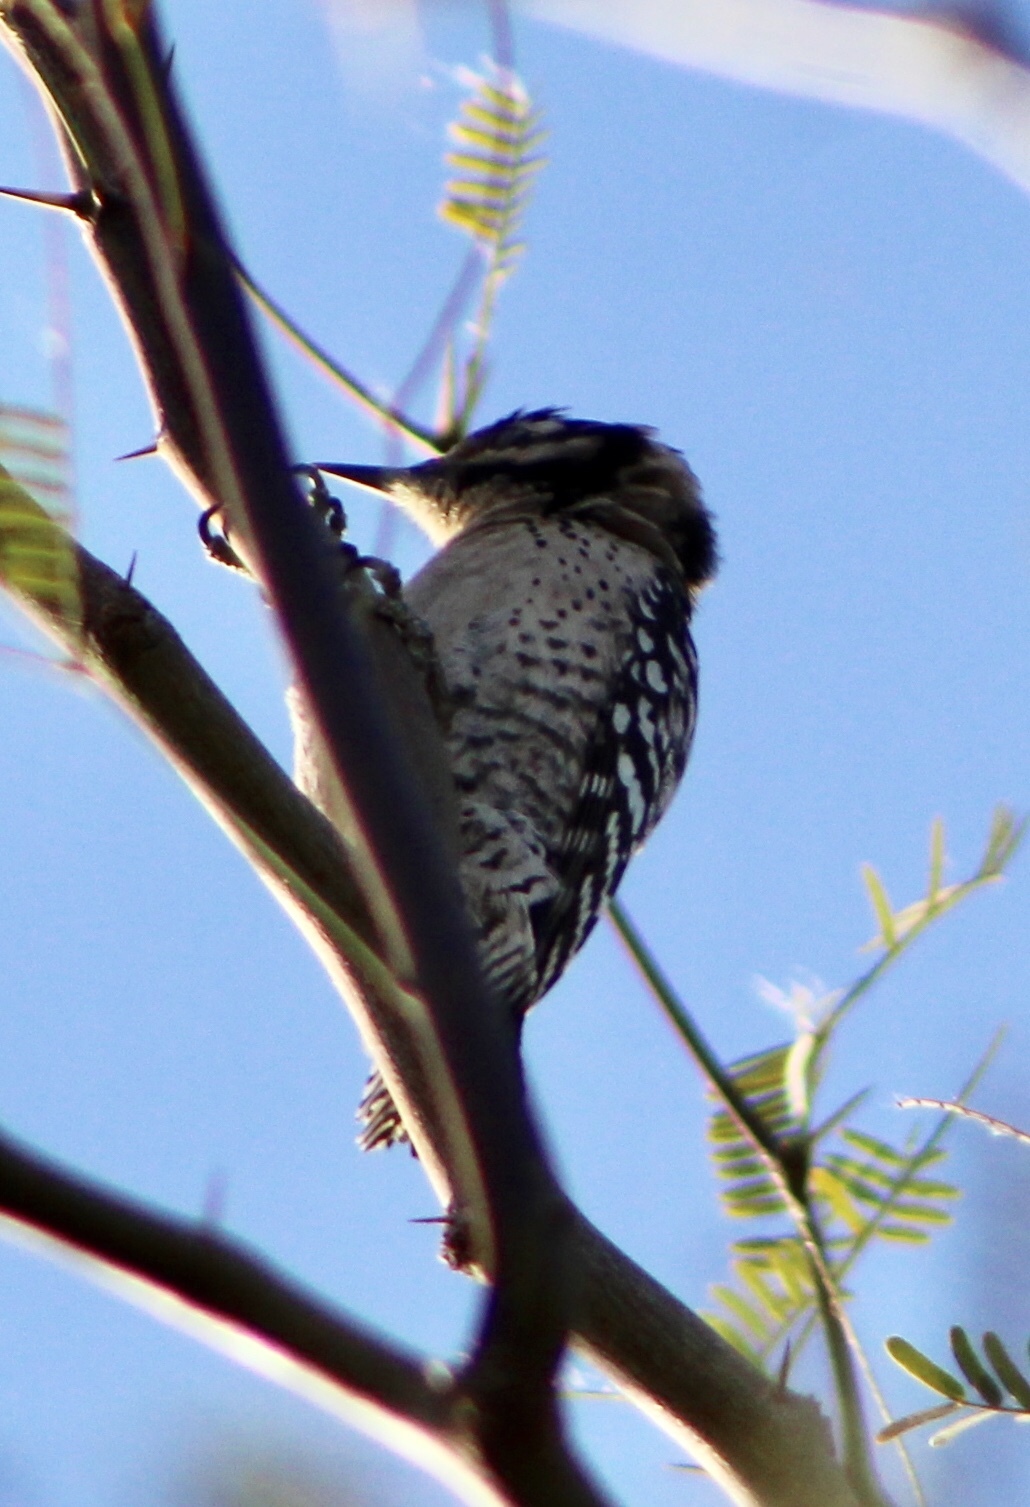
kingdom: Animalia
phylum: Chordata
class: Aves
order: Piciformes
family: Picidae
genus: Dryobates
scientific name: Dryobates scalaris
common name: Ladder-backed woodpecker
